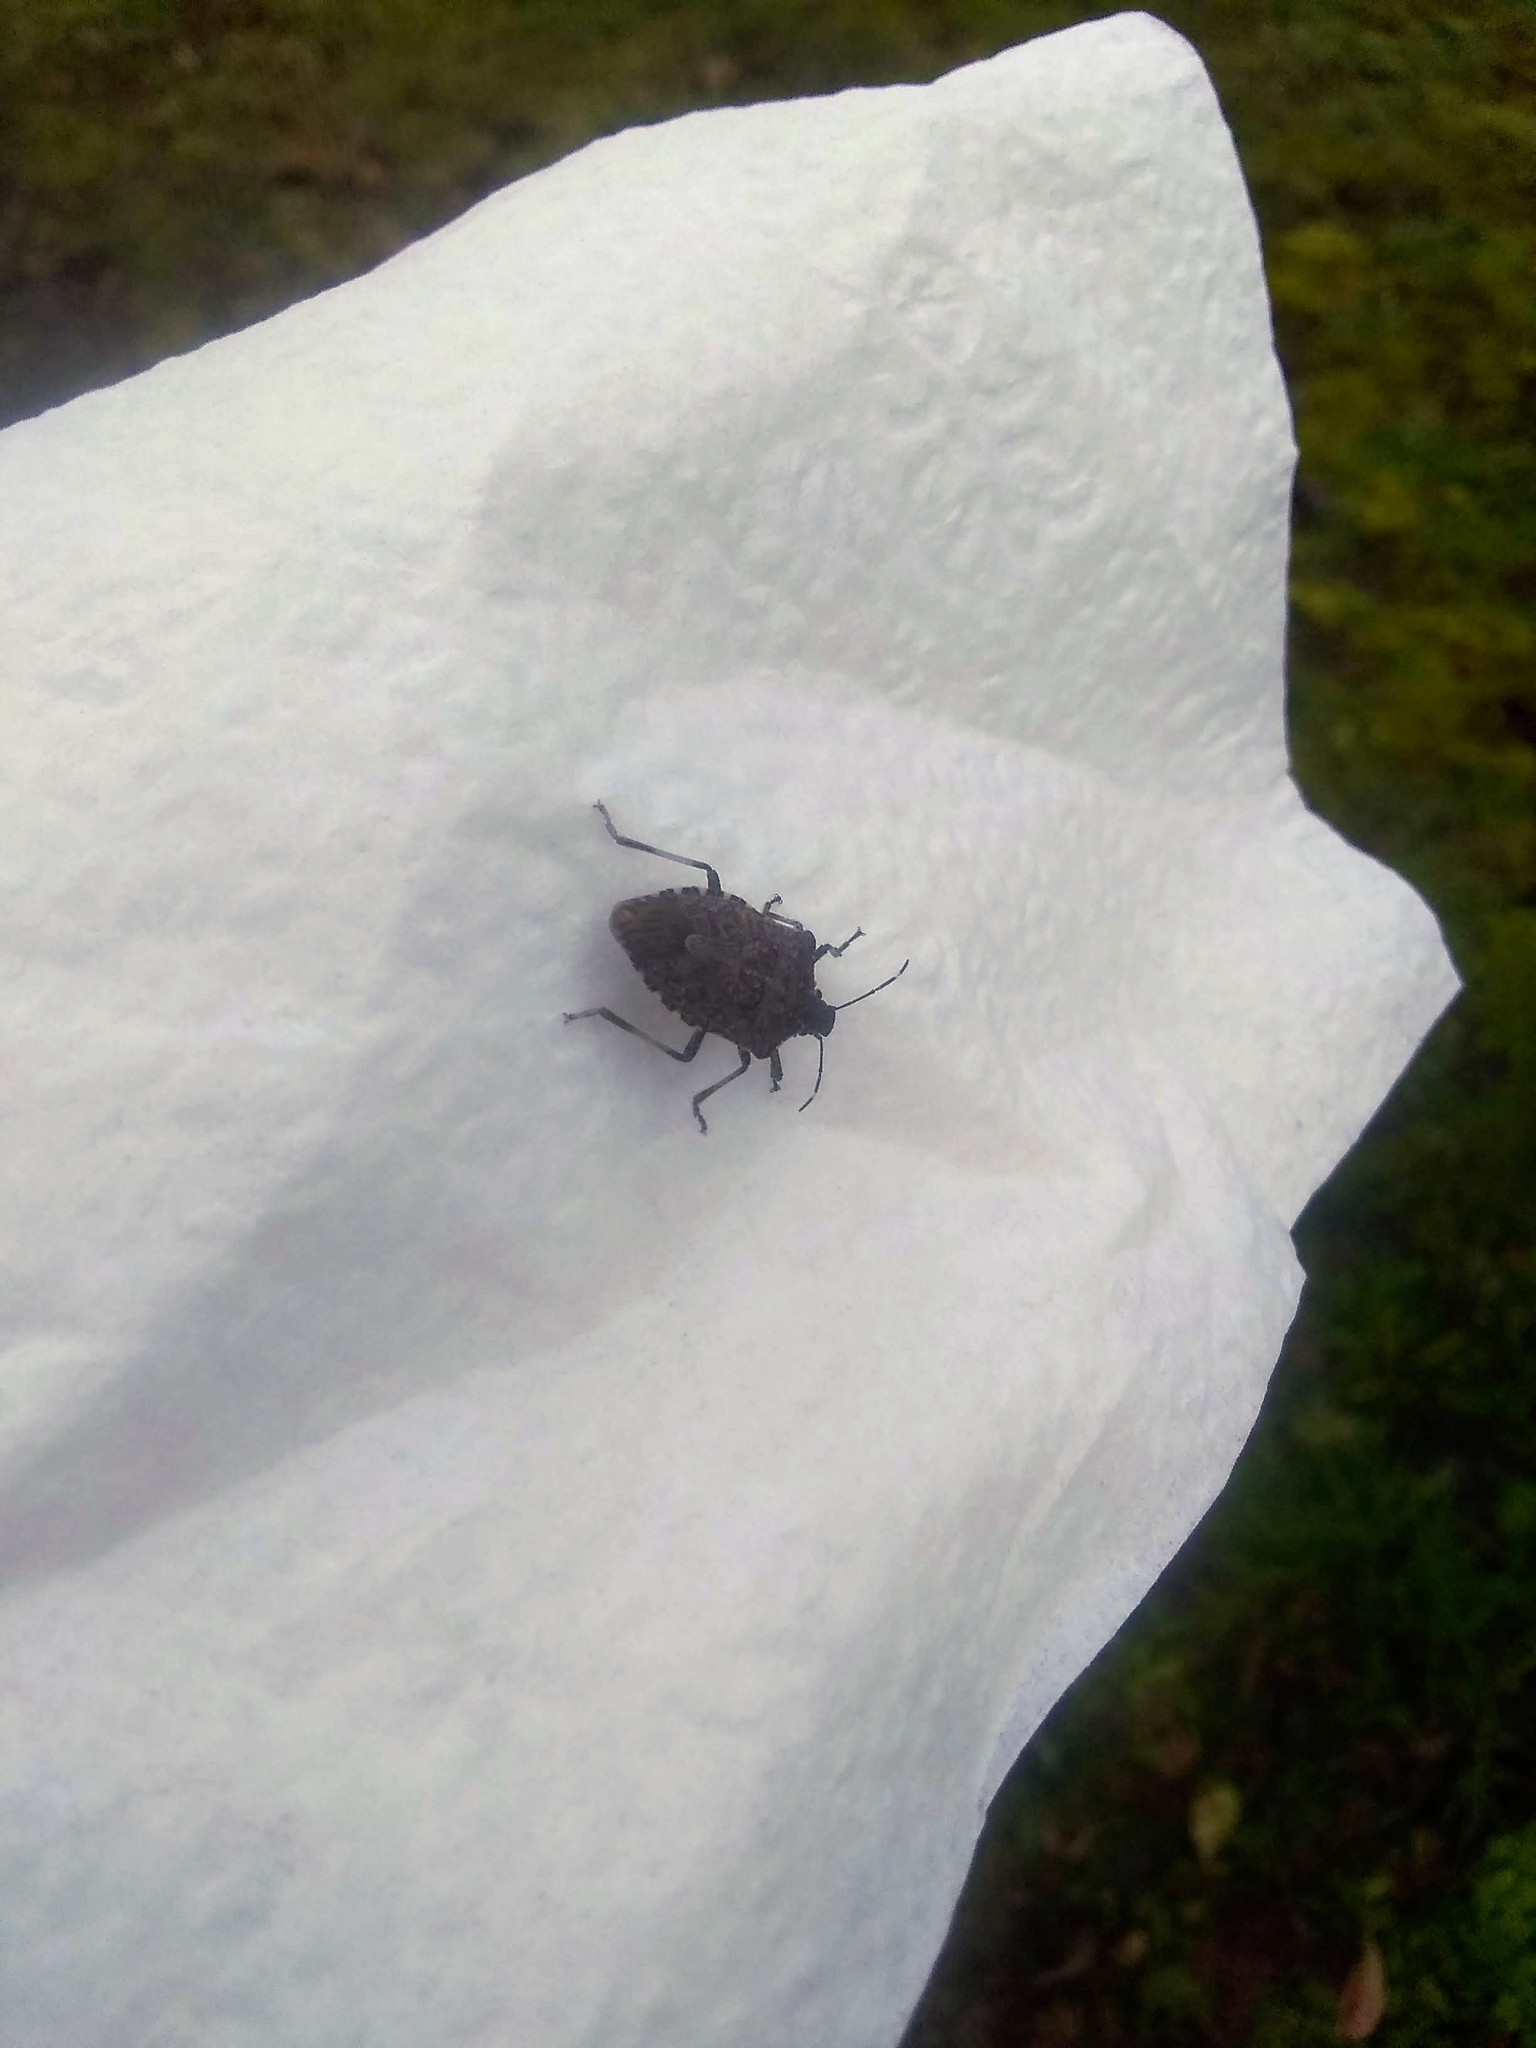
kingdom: Animalia
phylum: Arthropoda
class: Insecta
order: Hemiptera
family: Pentatomidae
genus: Halyomorpha
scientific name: Halyomorpha halys
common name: Brown marmorated stink bug
